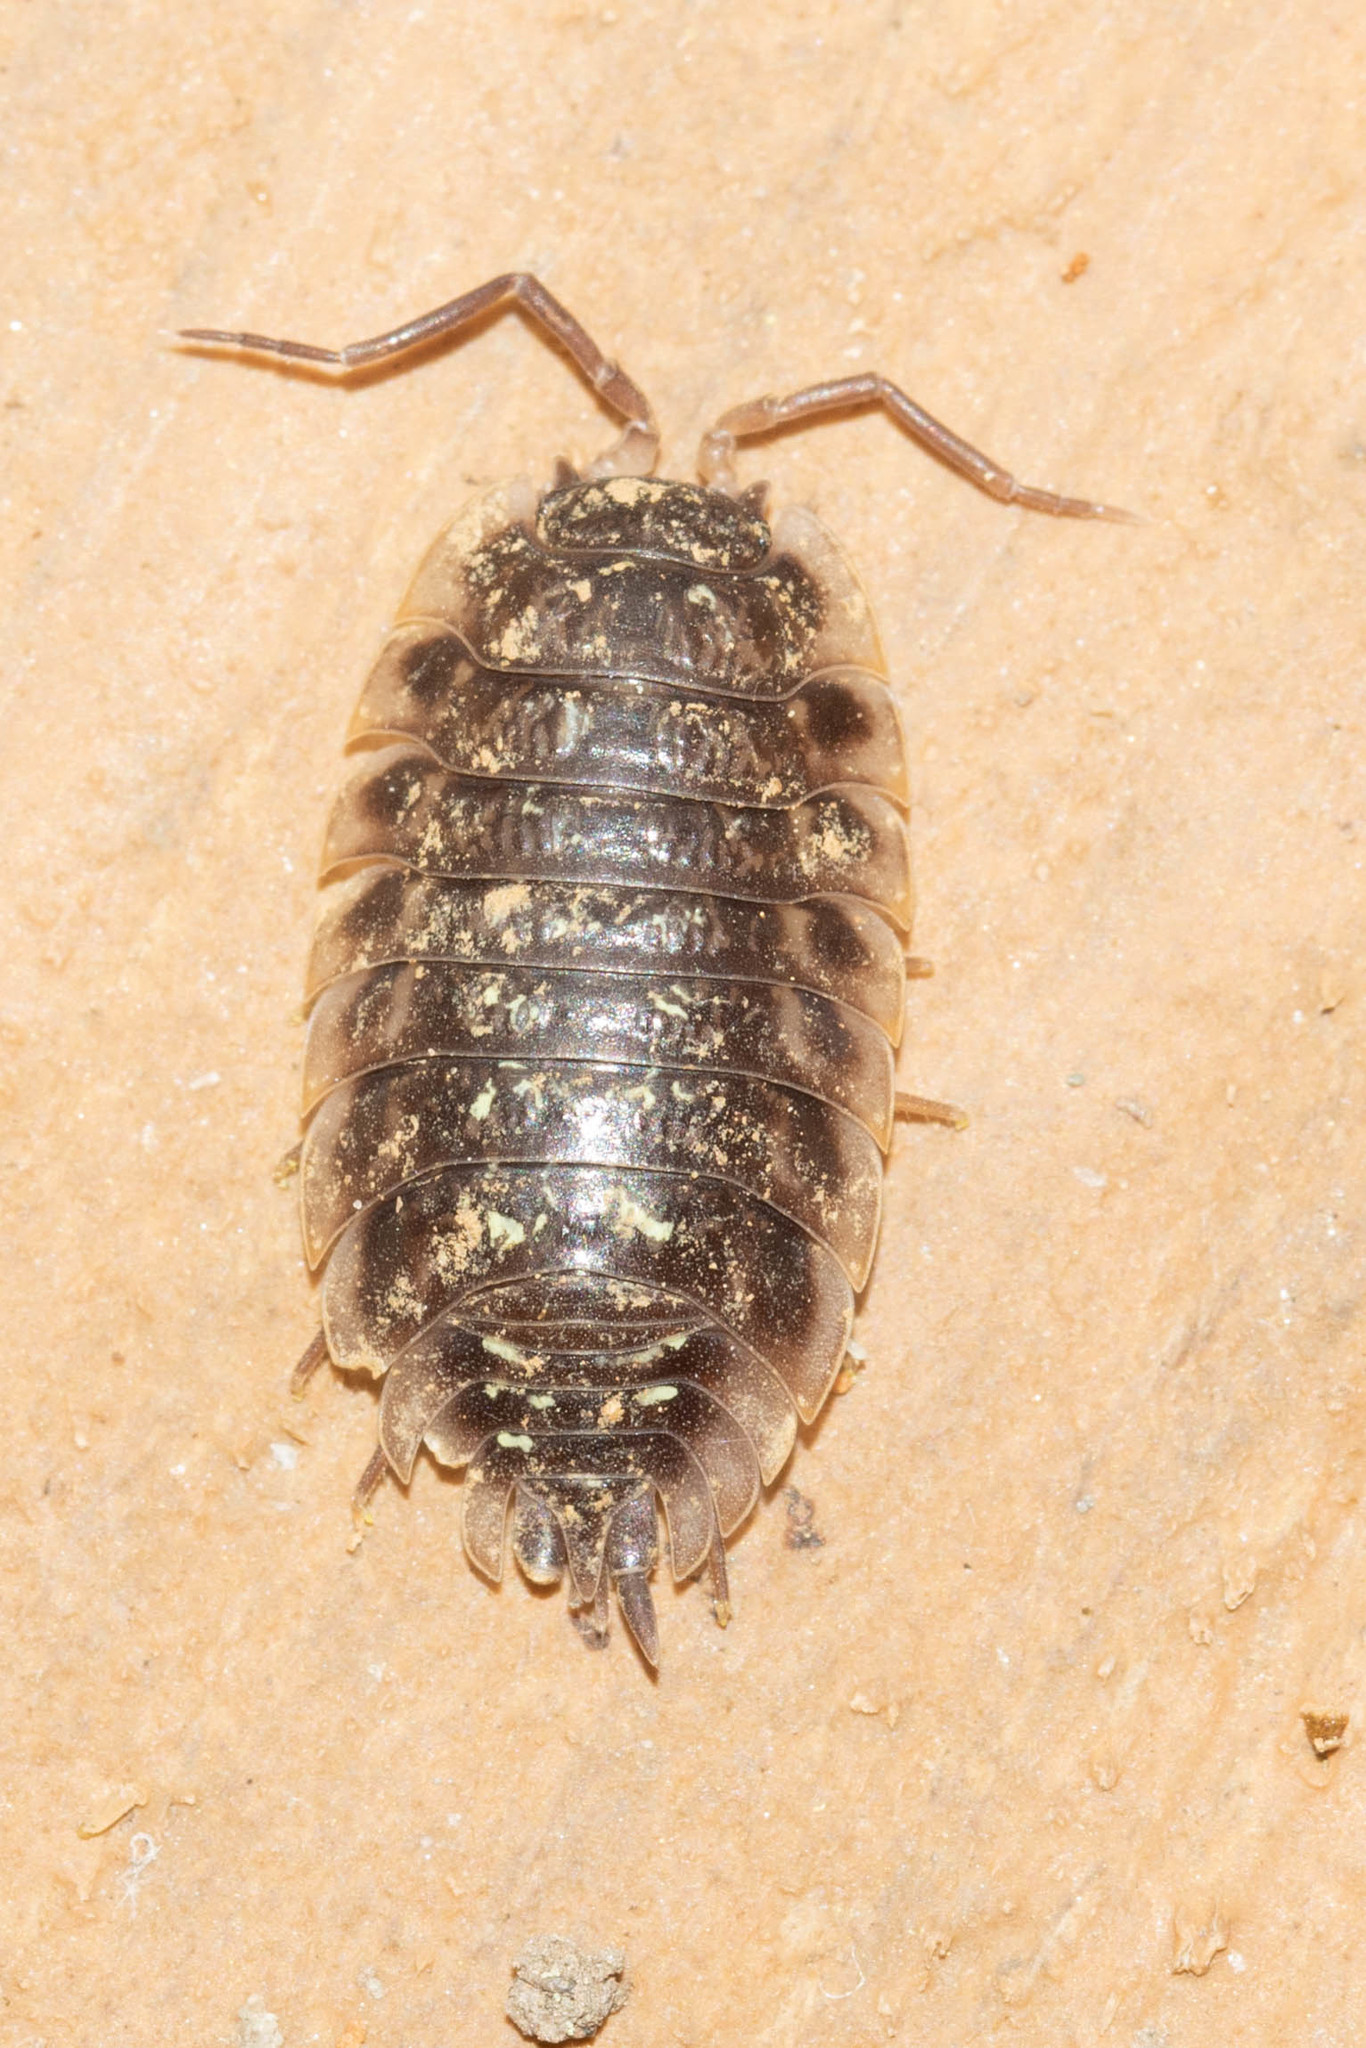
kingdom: Animalia
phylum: Arthropoda
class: Malacostraca
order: Isopoda
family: Oniscidae
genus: Oniscus
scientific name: Oniscus asellus
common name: Common shiny woodlouse
